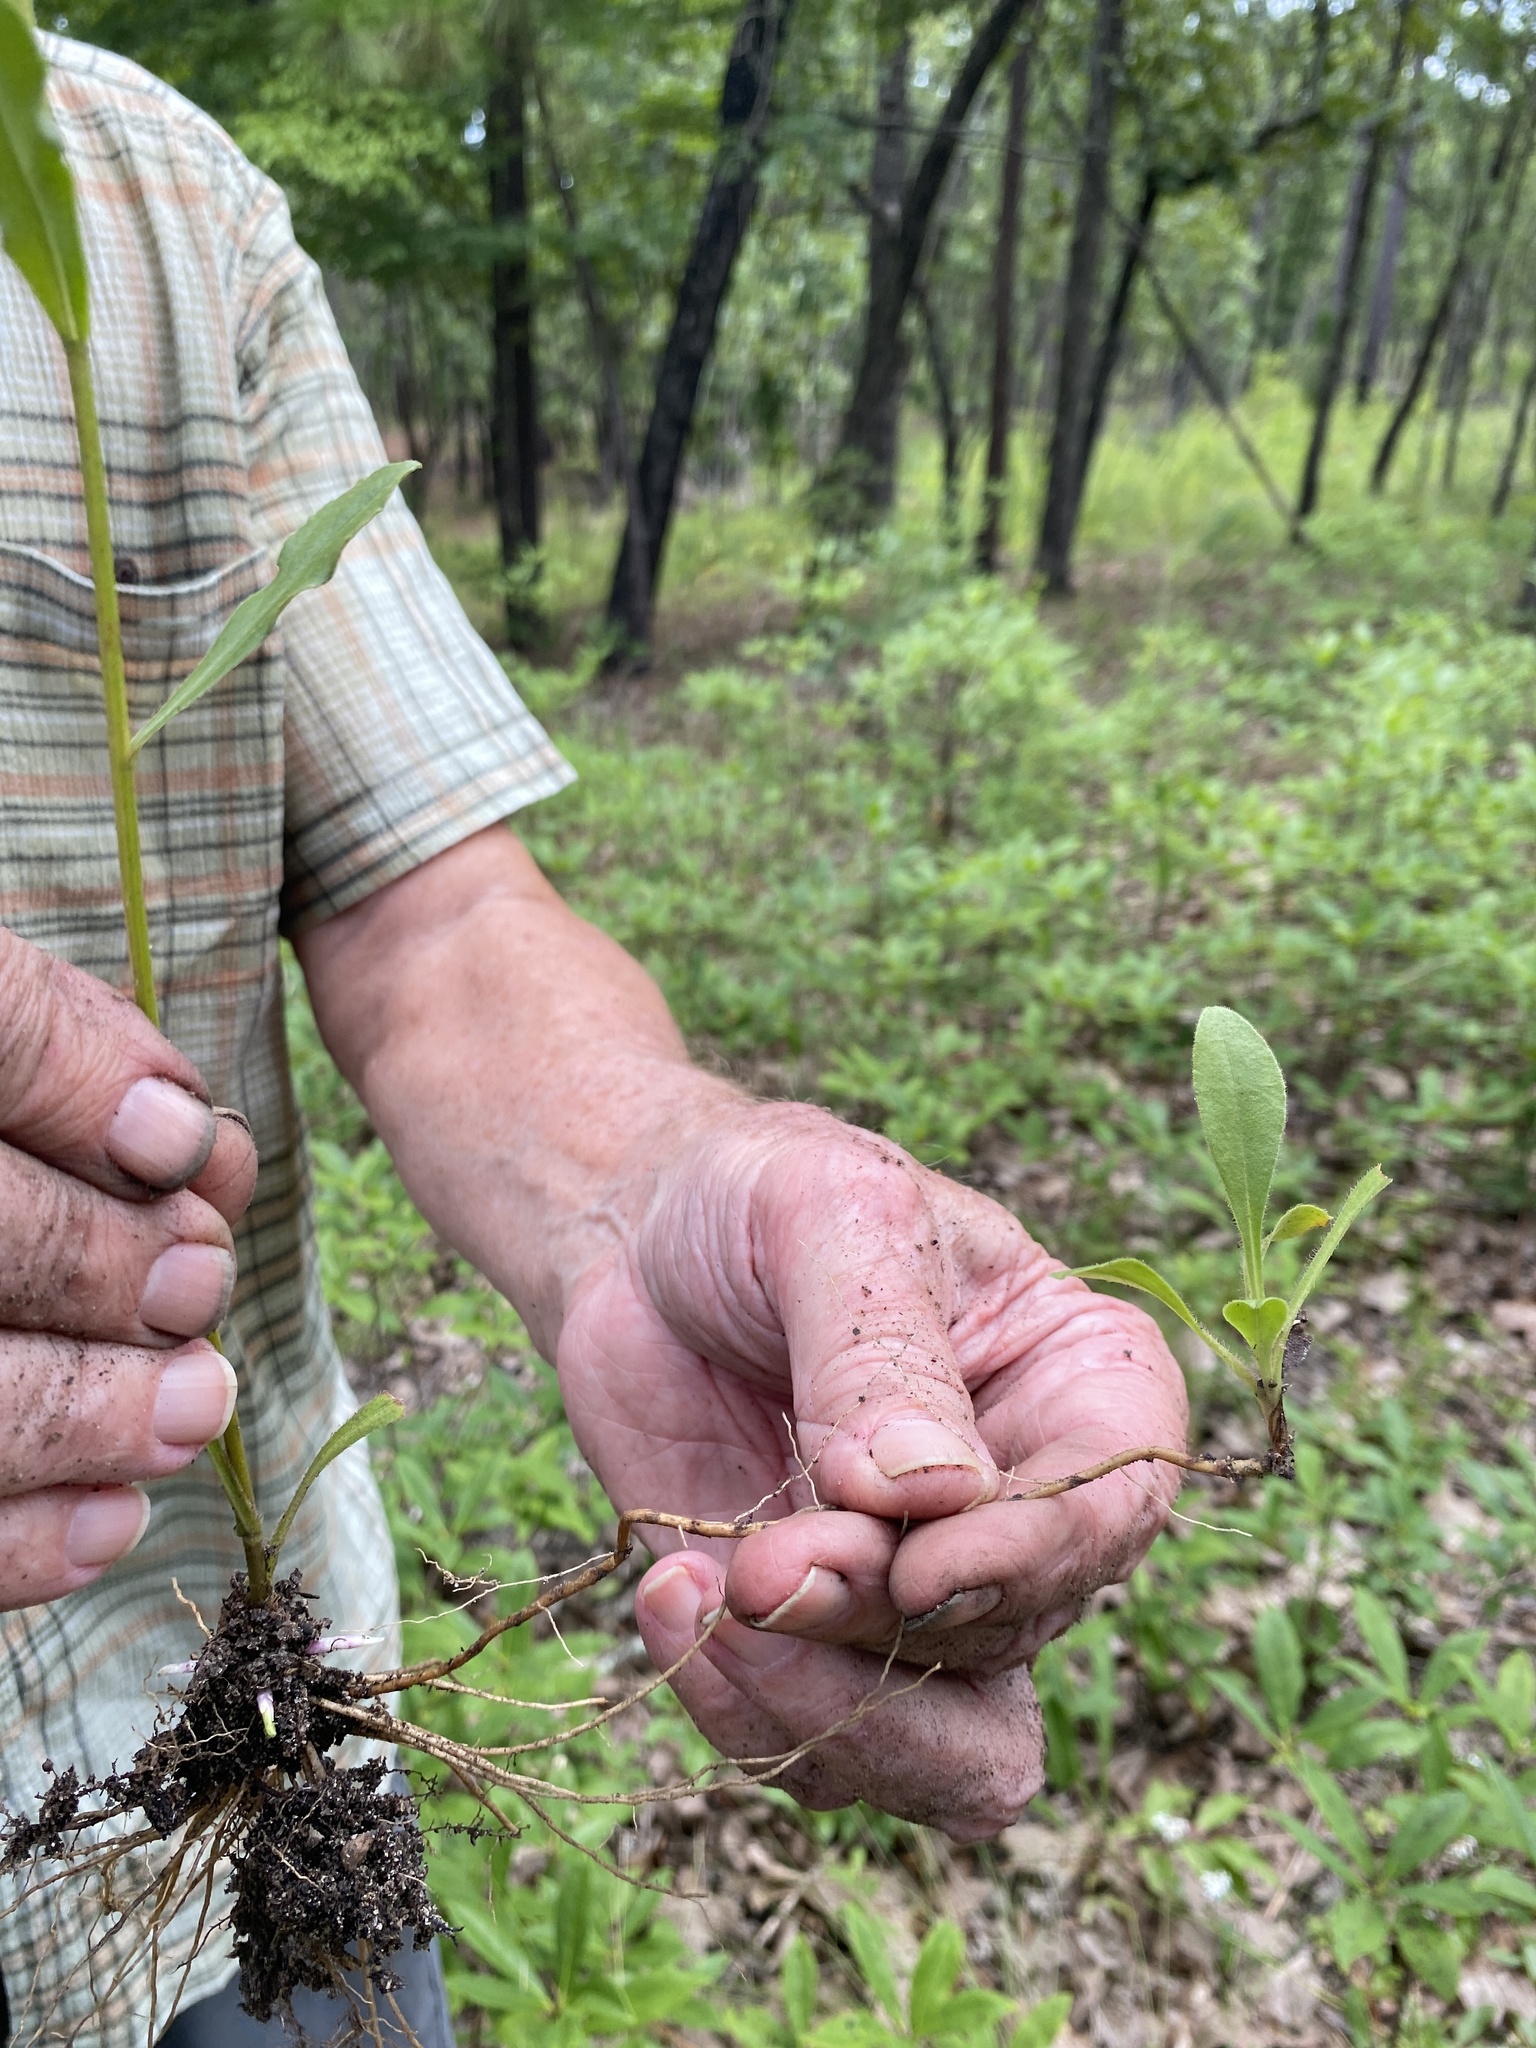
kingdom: Plantae
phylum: Tracheophyta
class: Magnoliopsida
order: Asterales
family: Asteraceae
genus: Sericocarpus
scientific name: Sericocarpus asteroides
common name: Toothed white-top aster
